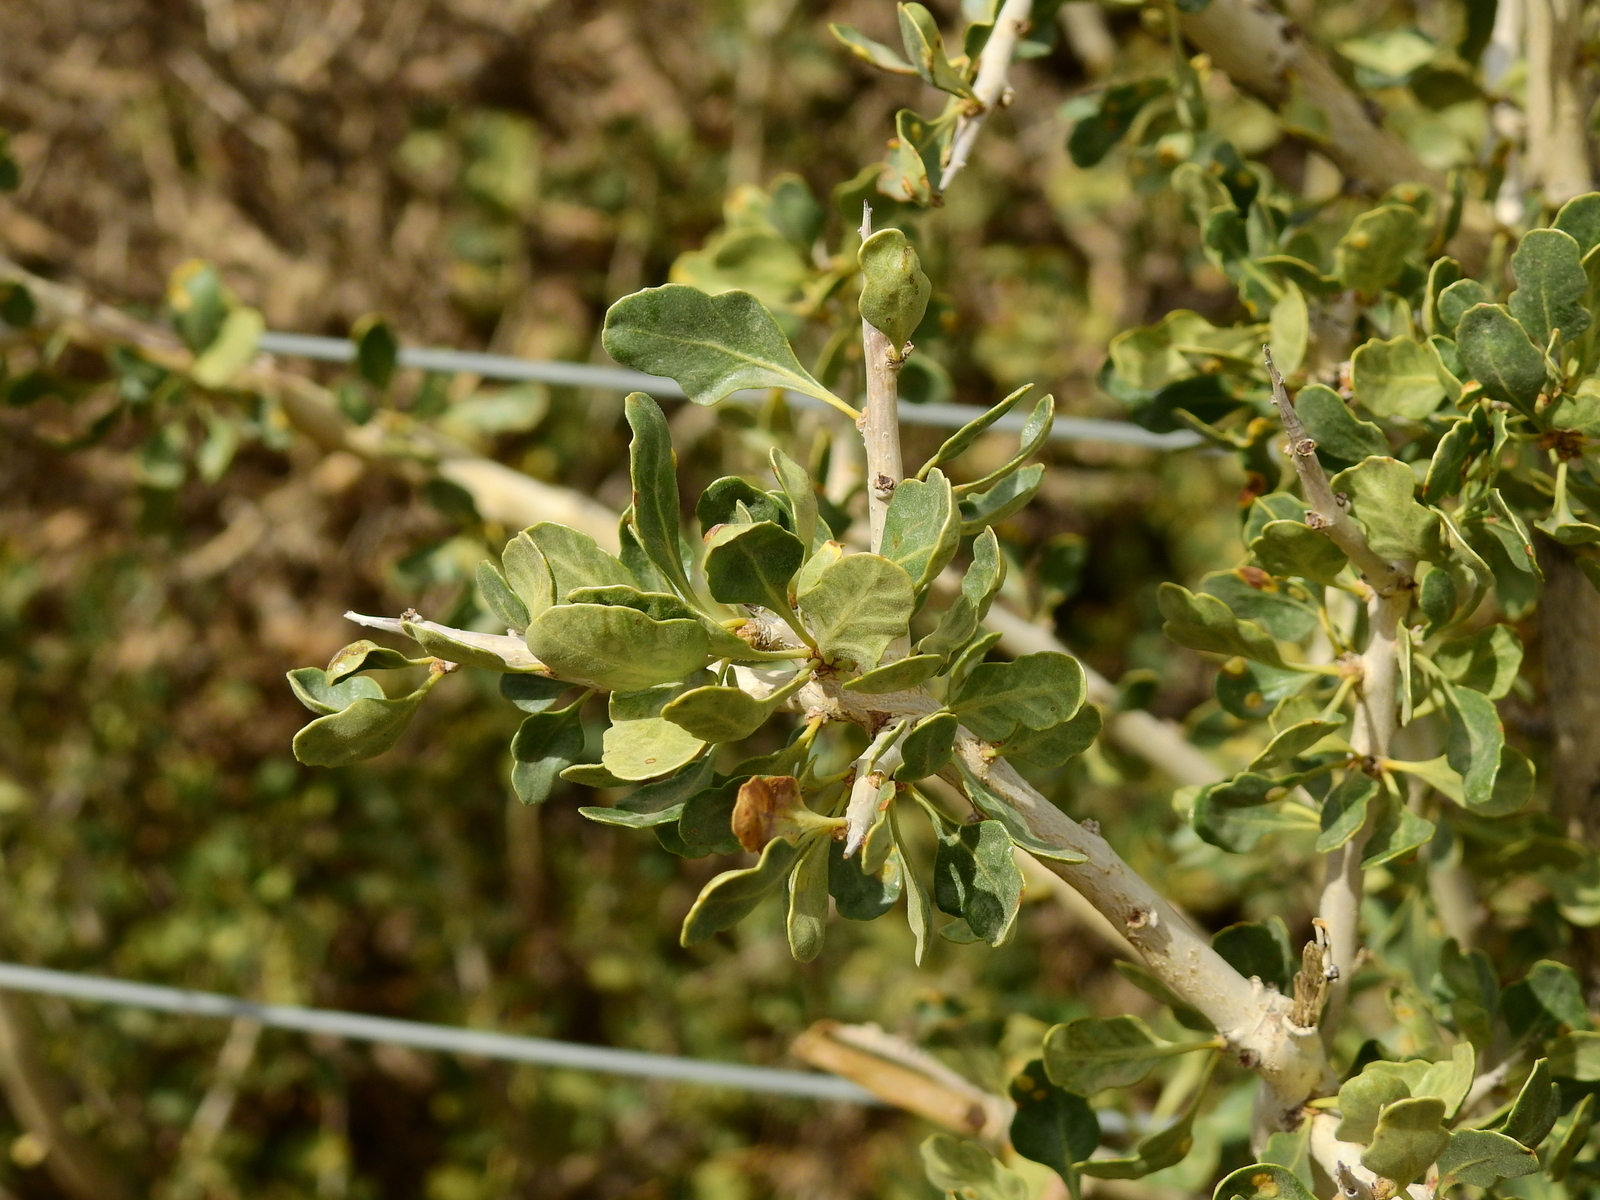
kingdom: Plantae
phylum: Tracheophyta
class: Magnoliopsida
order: Sapindales
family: Anacardiaceae
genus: Schinus
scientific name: Schinus odonellii
